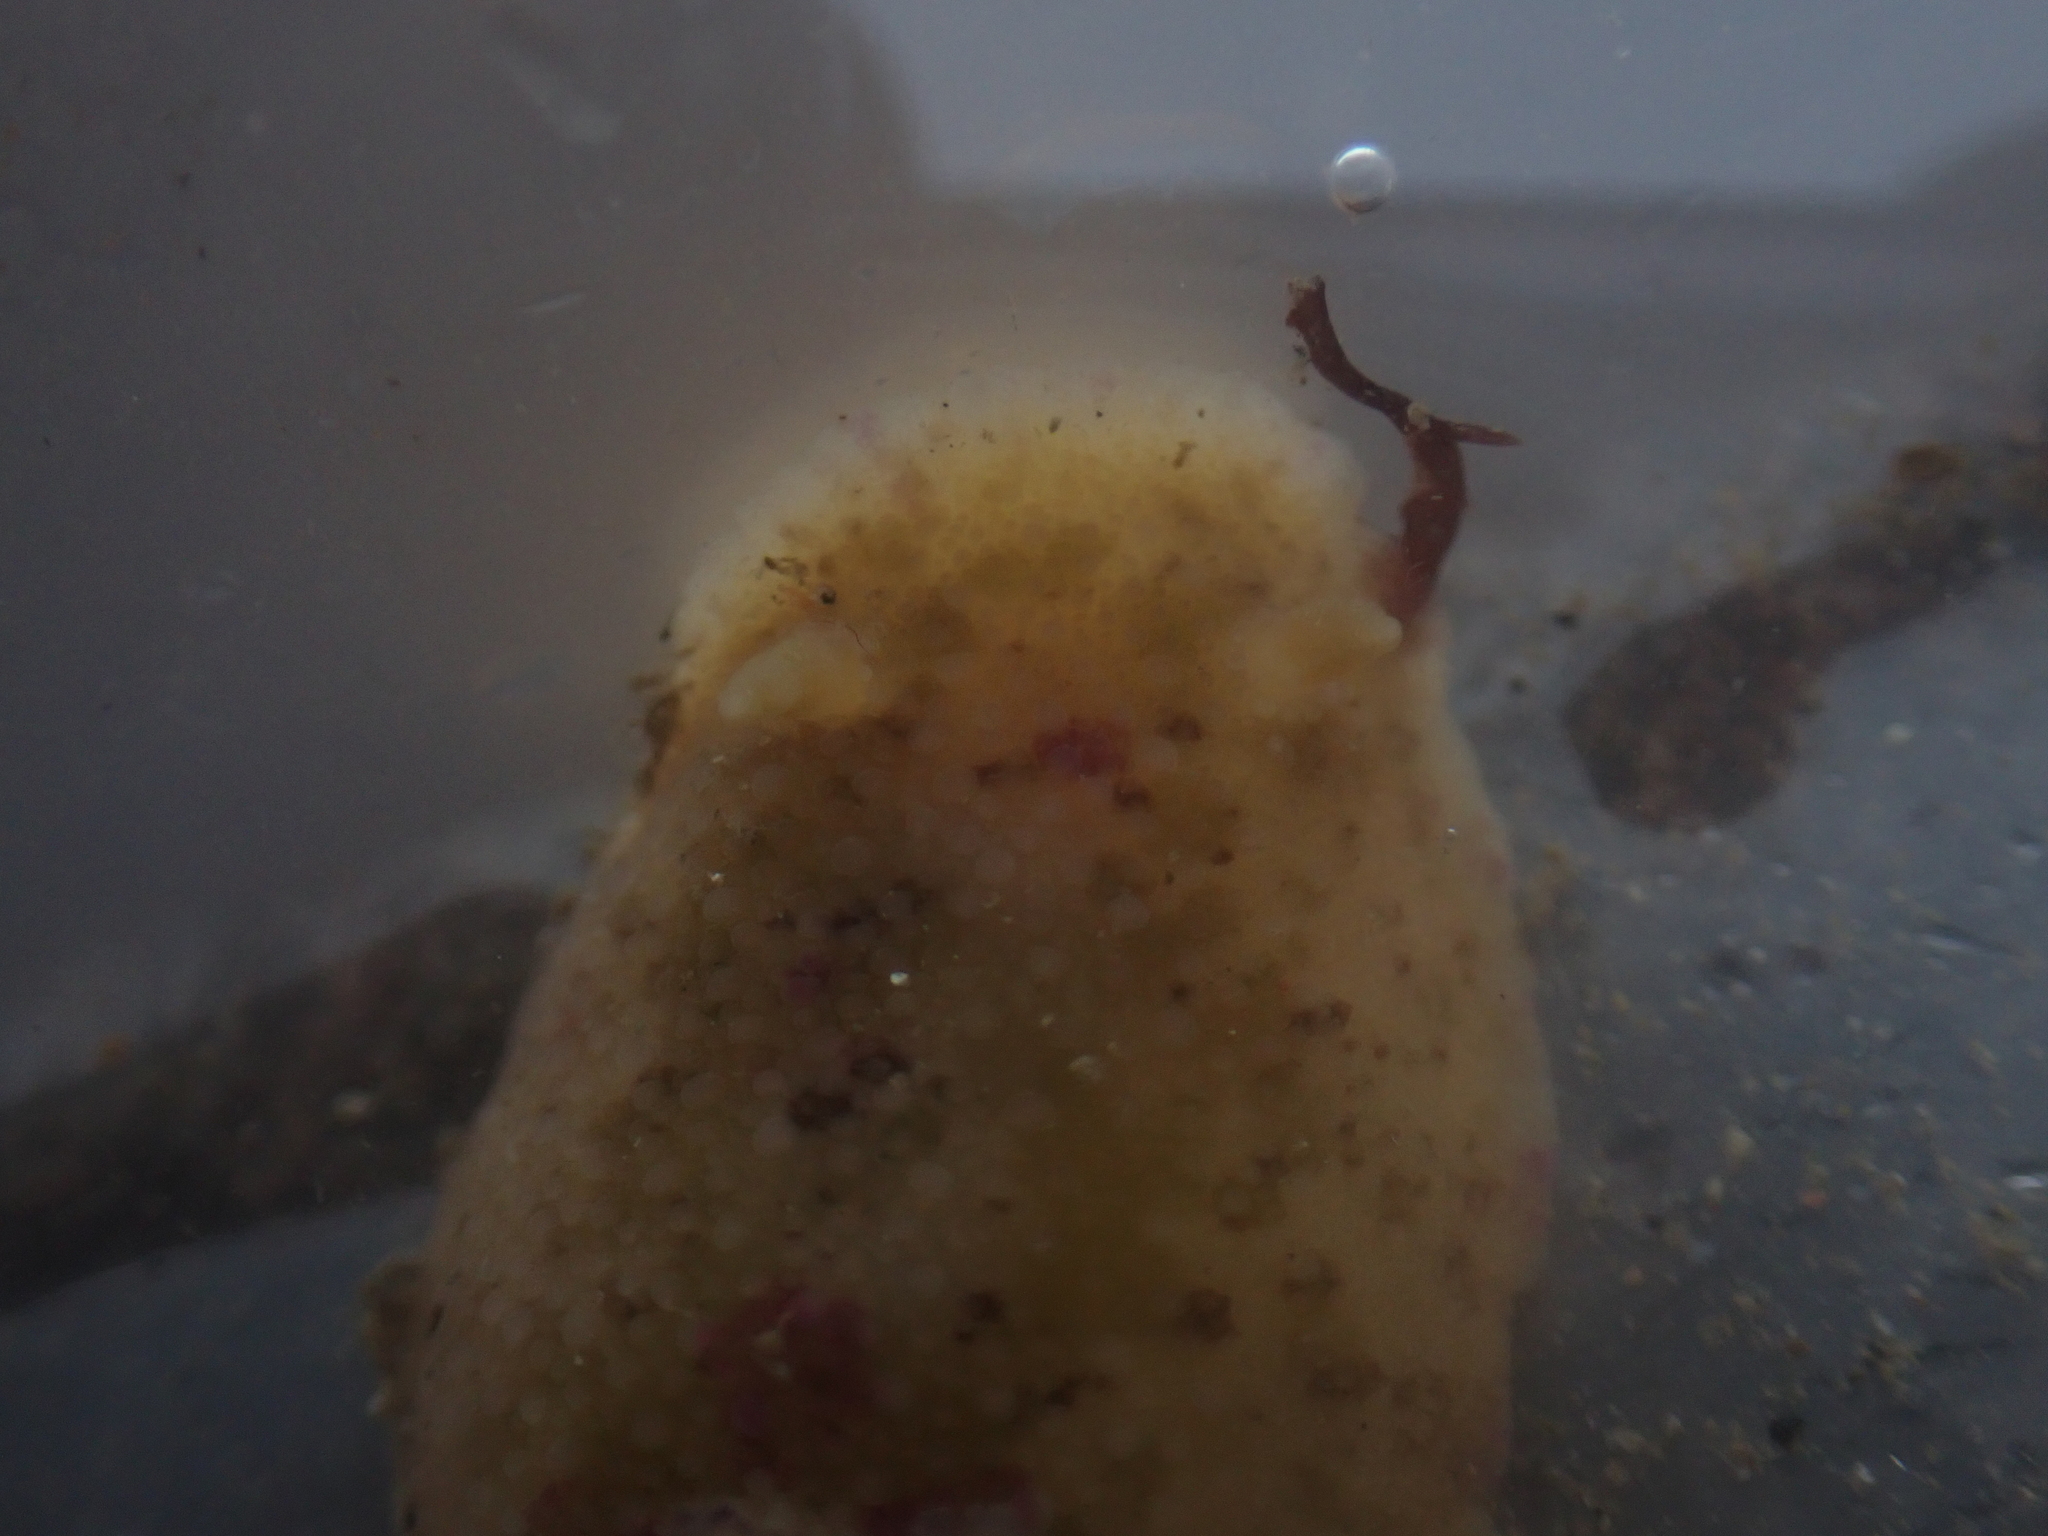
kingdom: Animalia
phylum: Mollusca
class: Gastropoda
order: Nudibranchia
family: Dorididae
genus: Doris
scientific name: Doris pseudoargus
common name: Sea lemon
